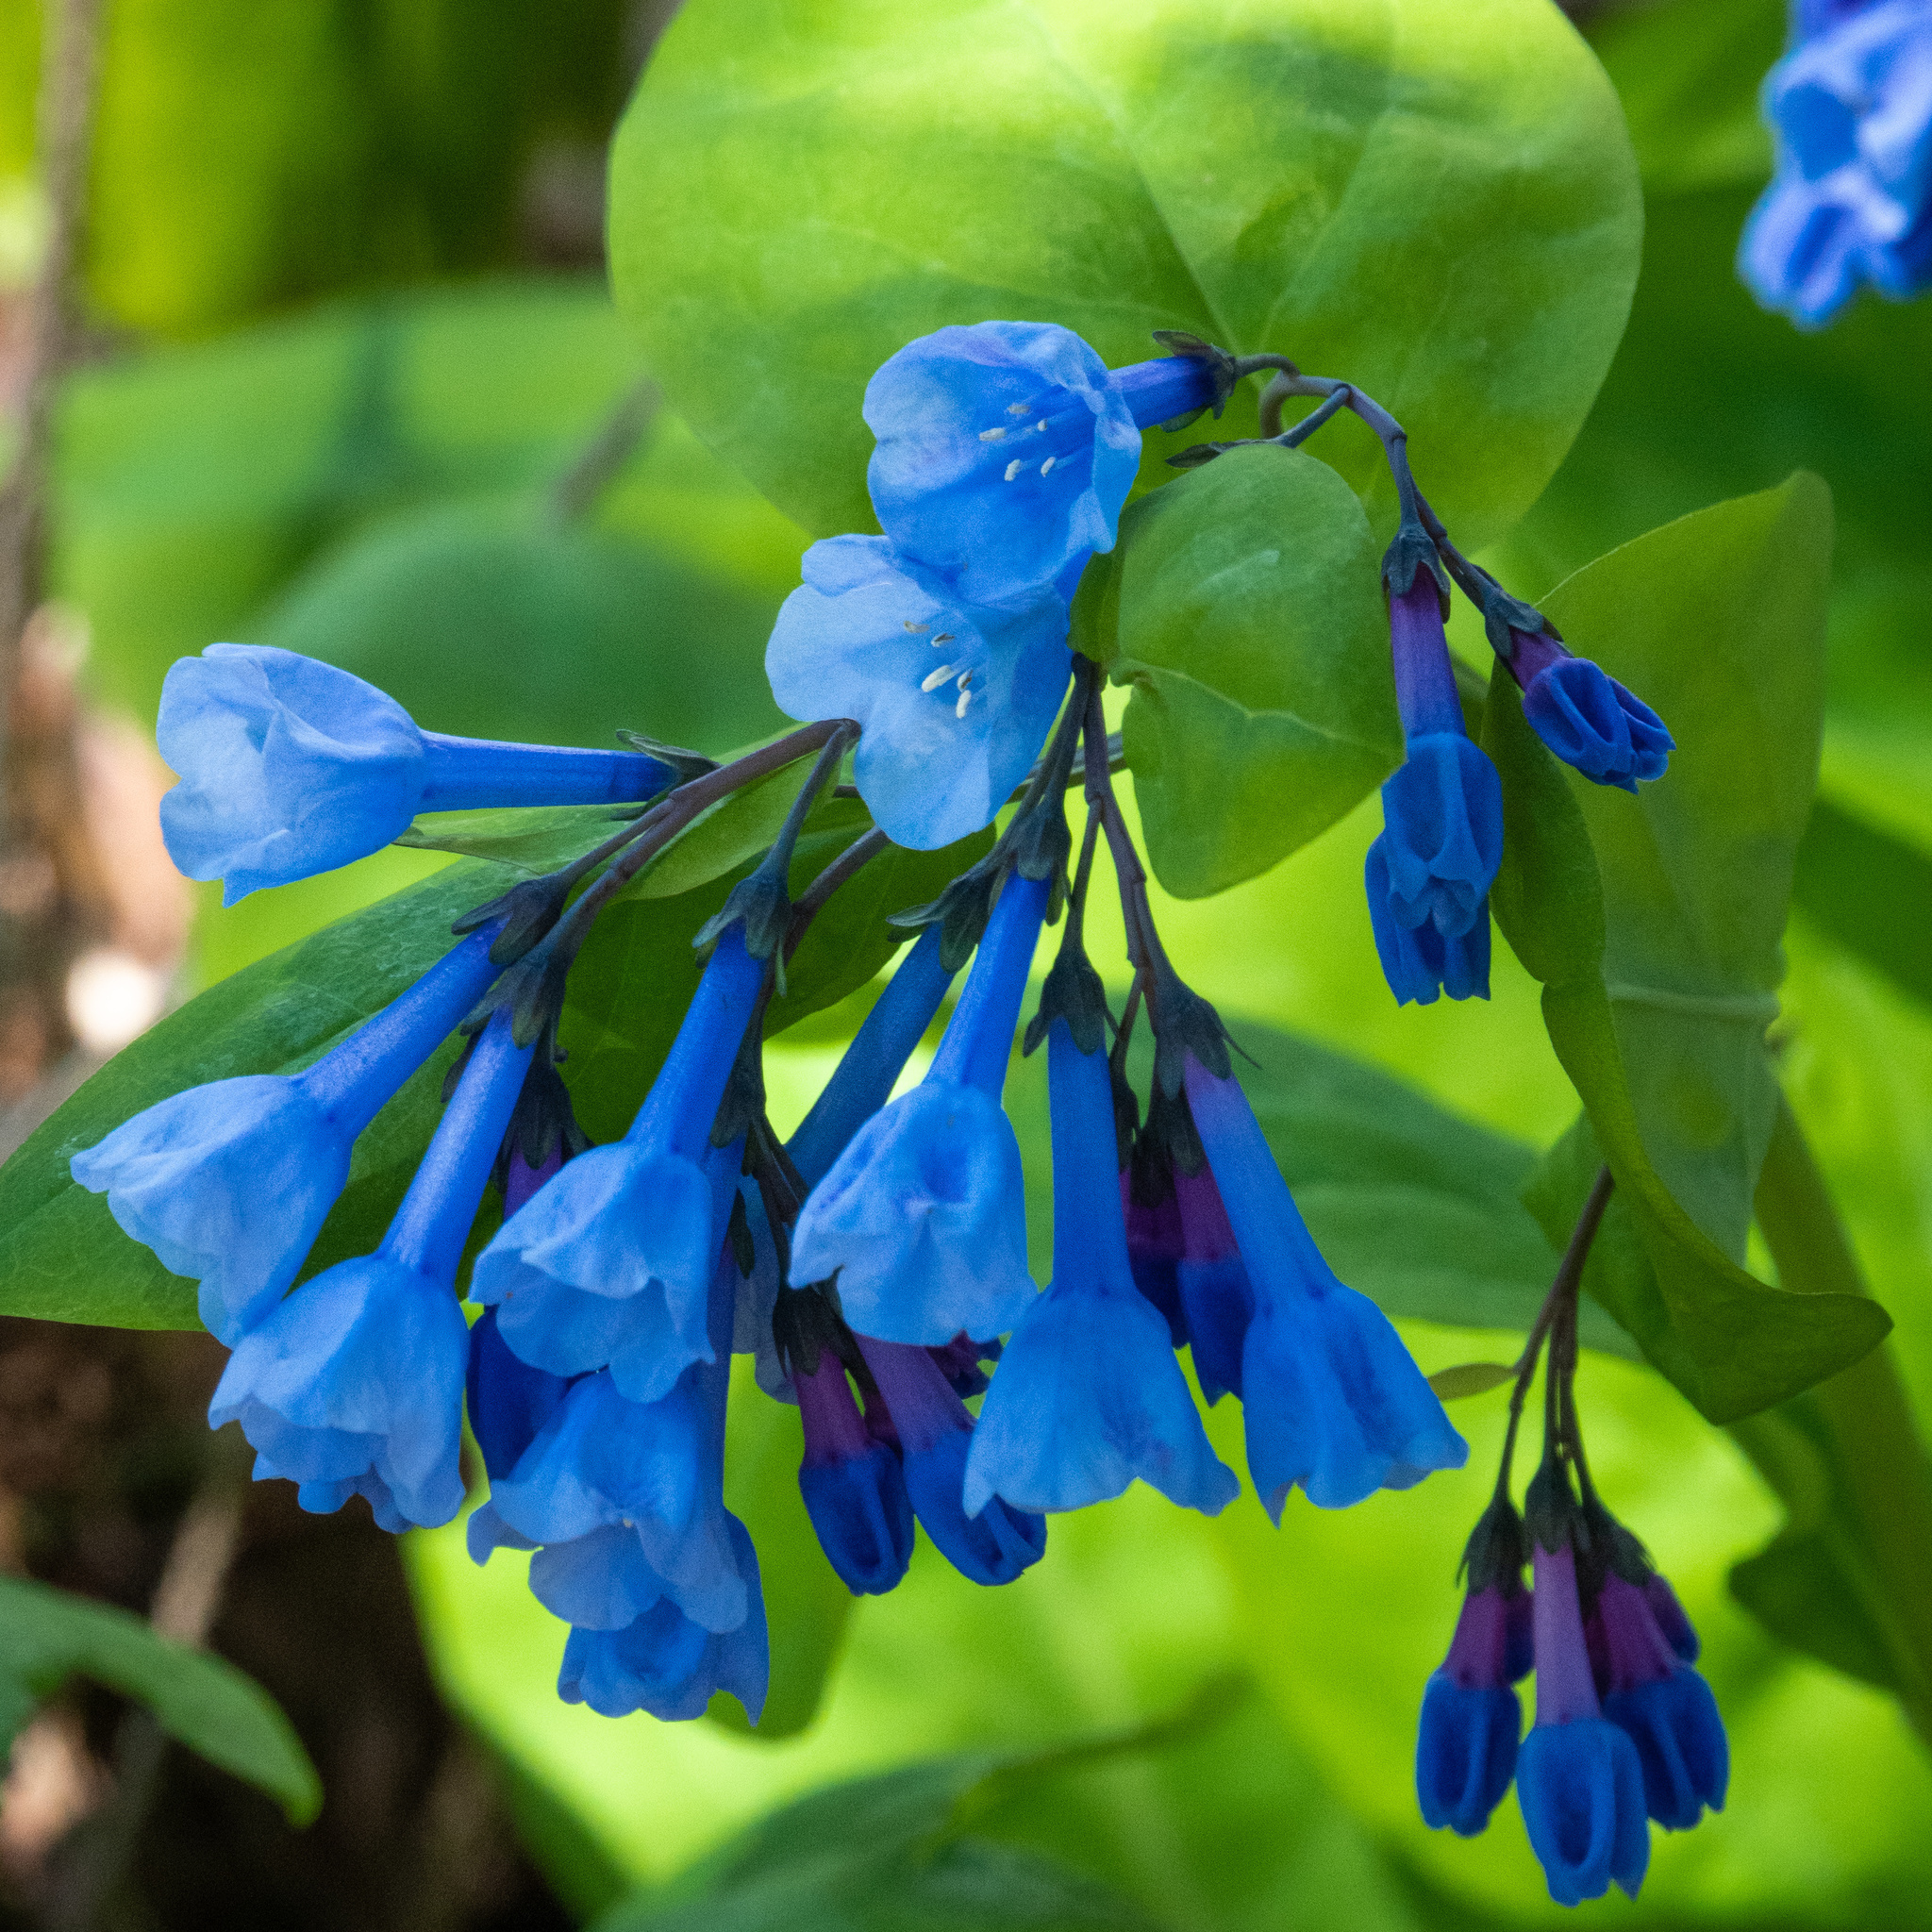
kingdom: Plantae
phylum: Tracheophyta
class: Magnoliopsida
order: Boraginales
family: Boraginaceae
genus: Mertensia
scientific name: Mertensia virginica
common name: Virginia bluebells
